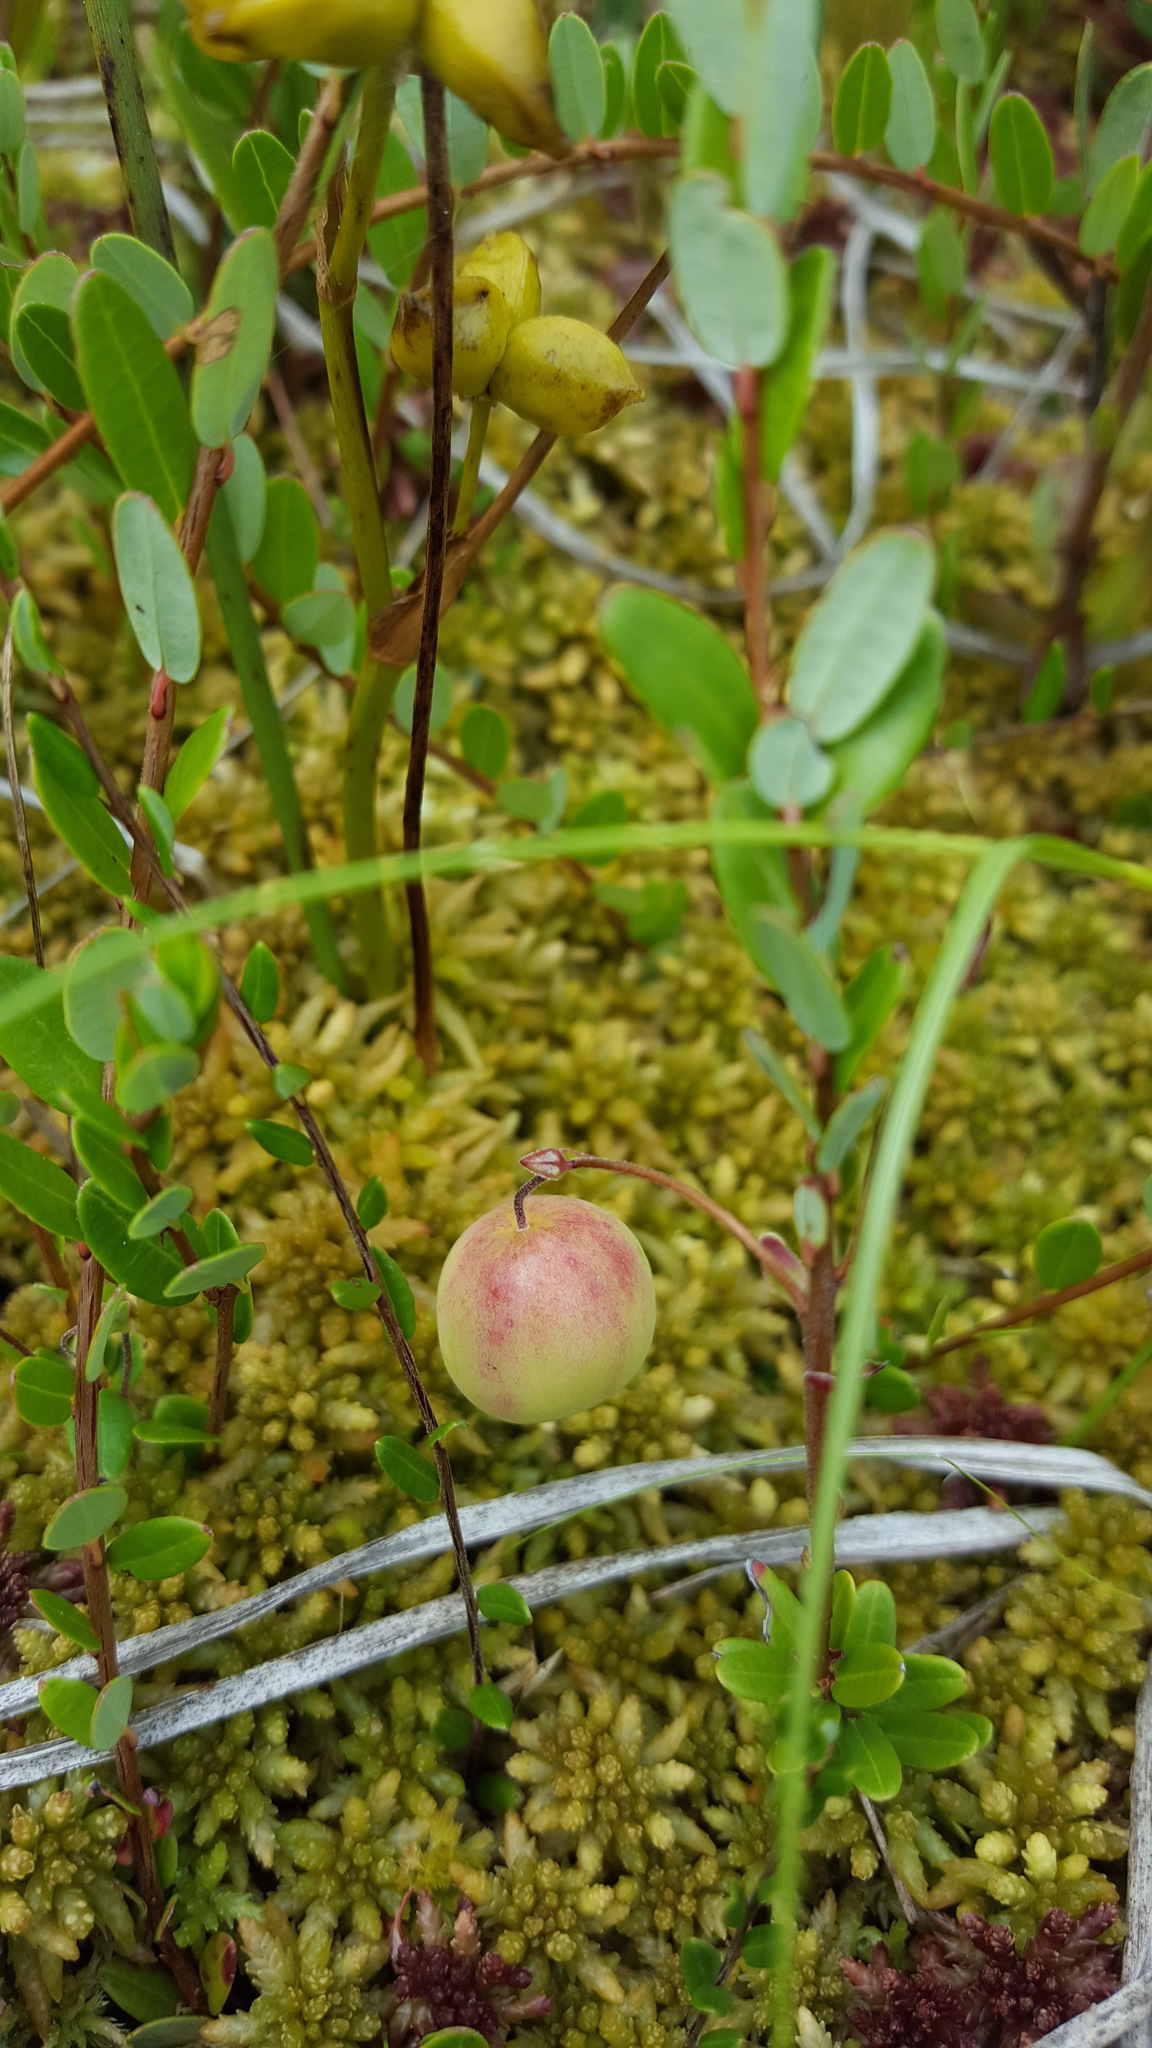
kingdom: Plantae
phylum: Tracheophyta
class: Magnoliopsida
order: Ericales
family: Ericaceae
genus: Vaccinium
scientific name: Vaccinium macrocarpon
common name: American cranberry
